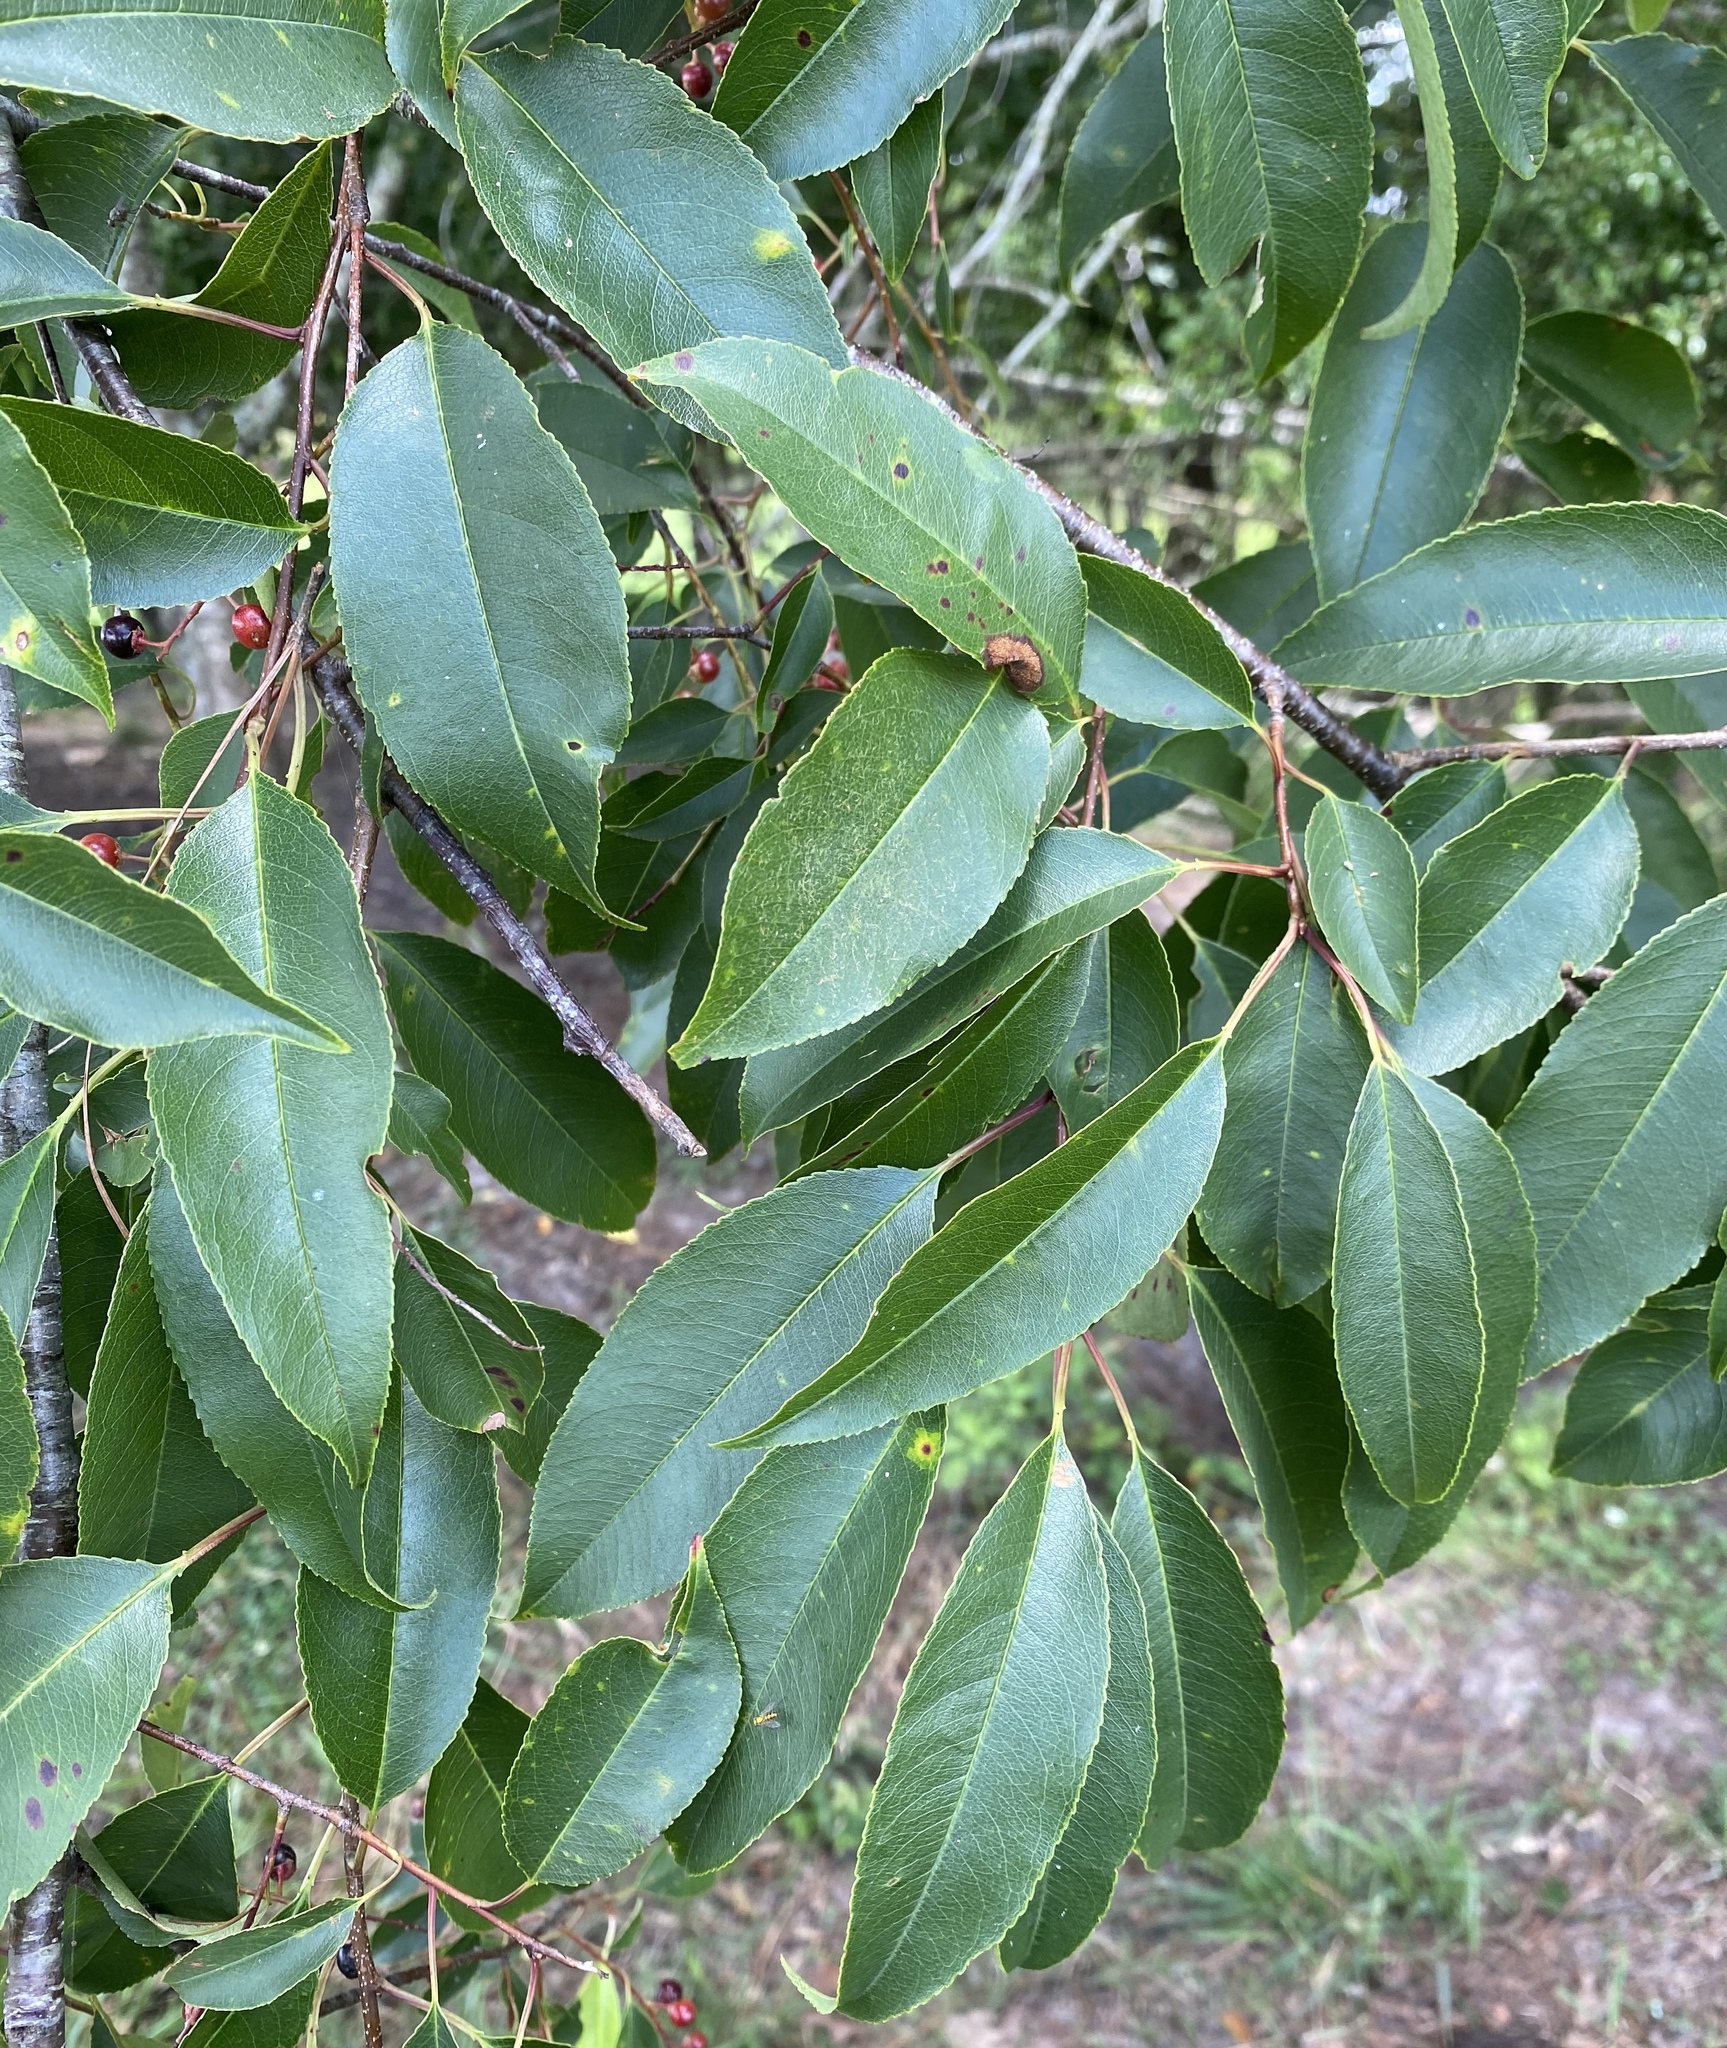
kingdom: Plantae
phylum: Tracheophyta
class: Magnoliopsida
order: Rosales
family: Rosaceae
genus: Prunus
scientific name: Prunus serotina
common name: Black cherry
